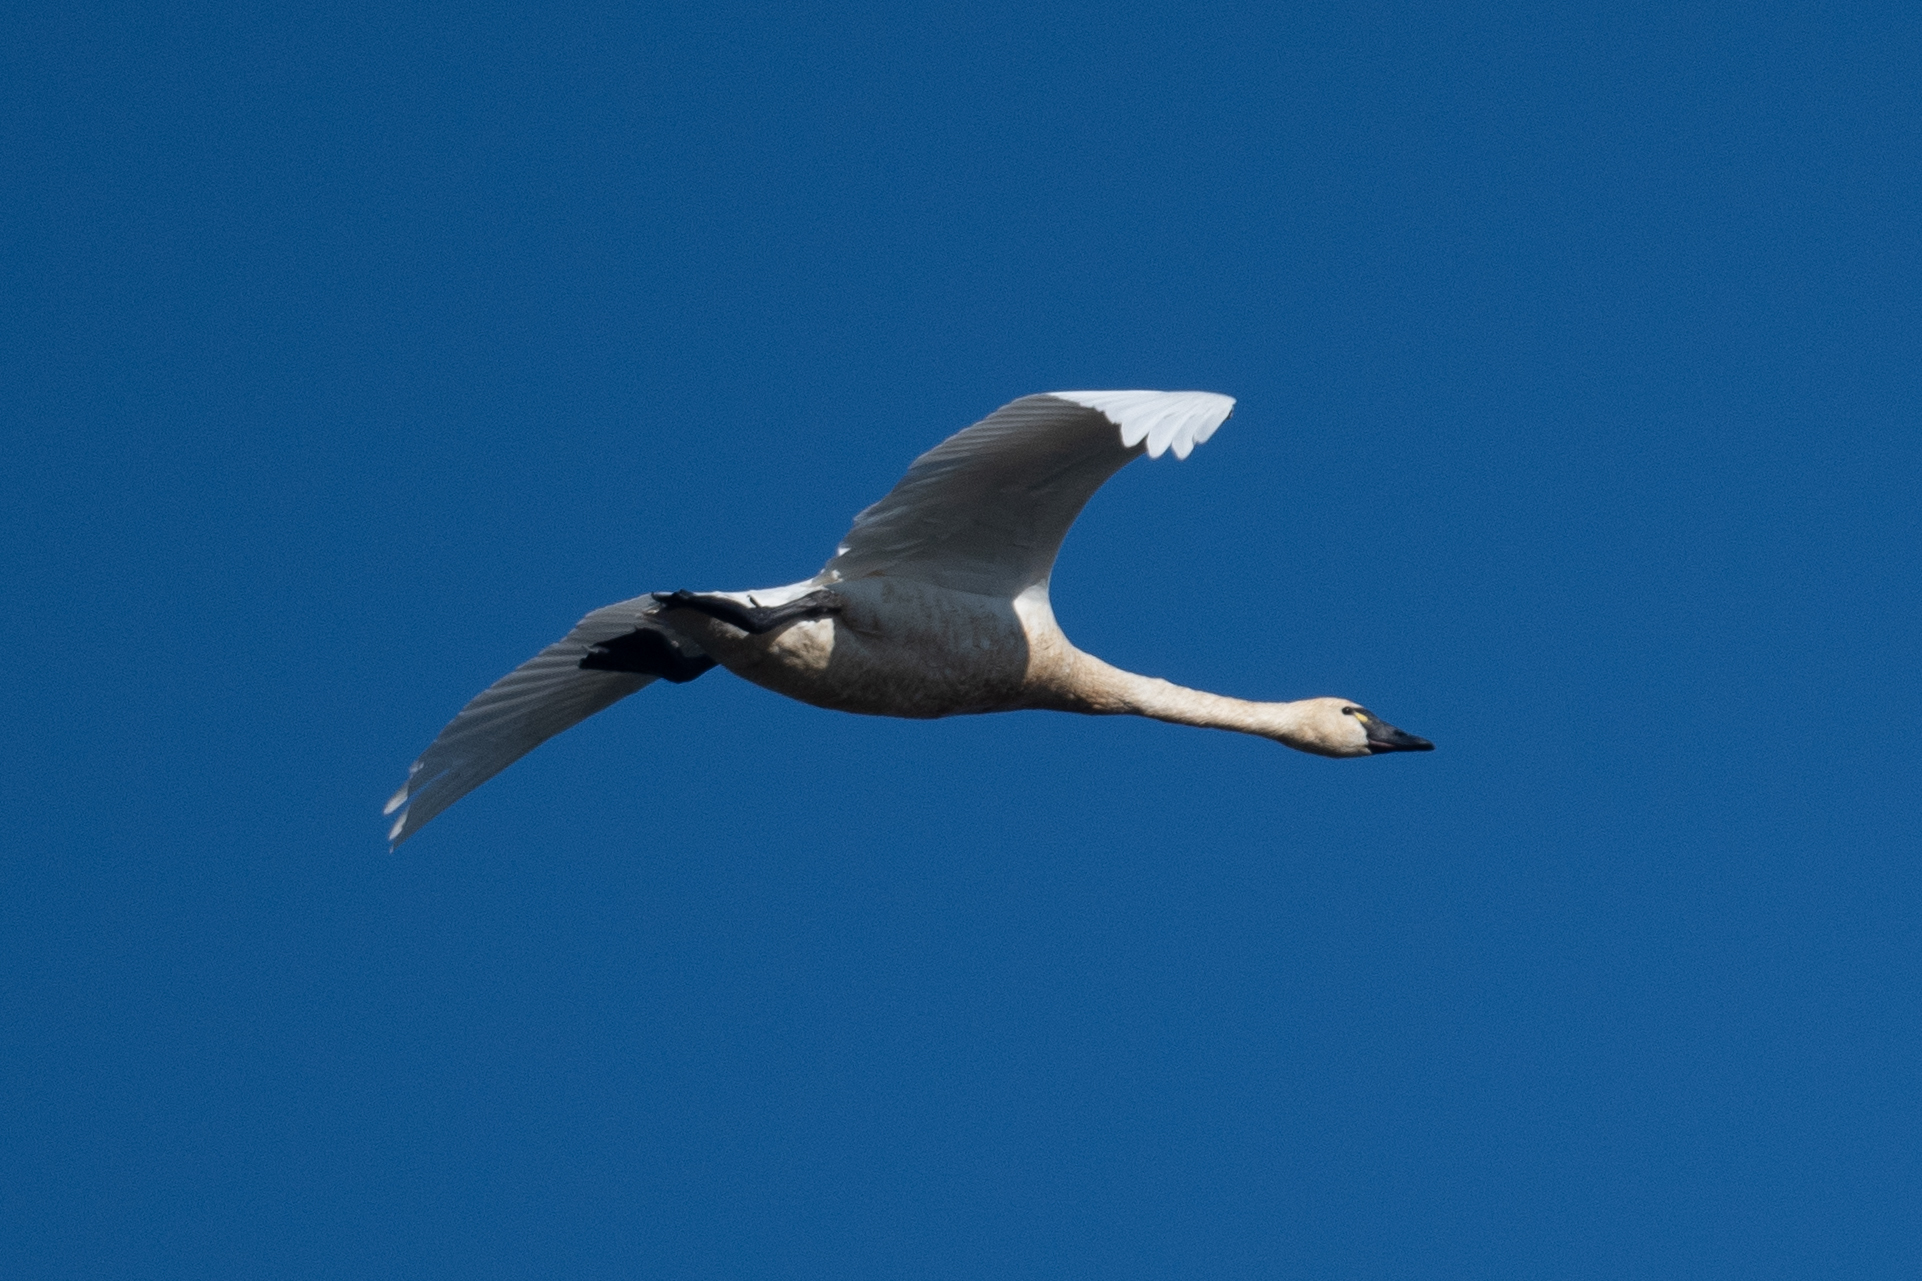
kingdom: Animalia
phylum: Chordata
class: Aves
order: Anseriformes
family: Anatidae
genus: Cygnus
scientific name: Cygnus columbianus
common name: Tundra swan
